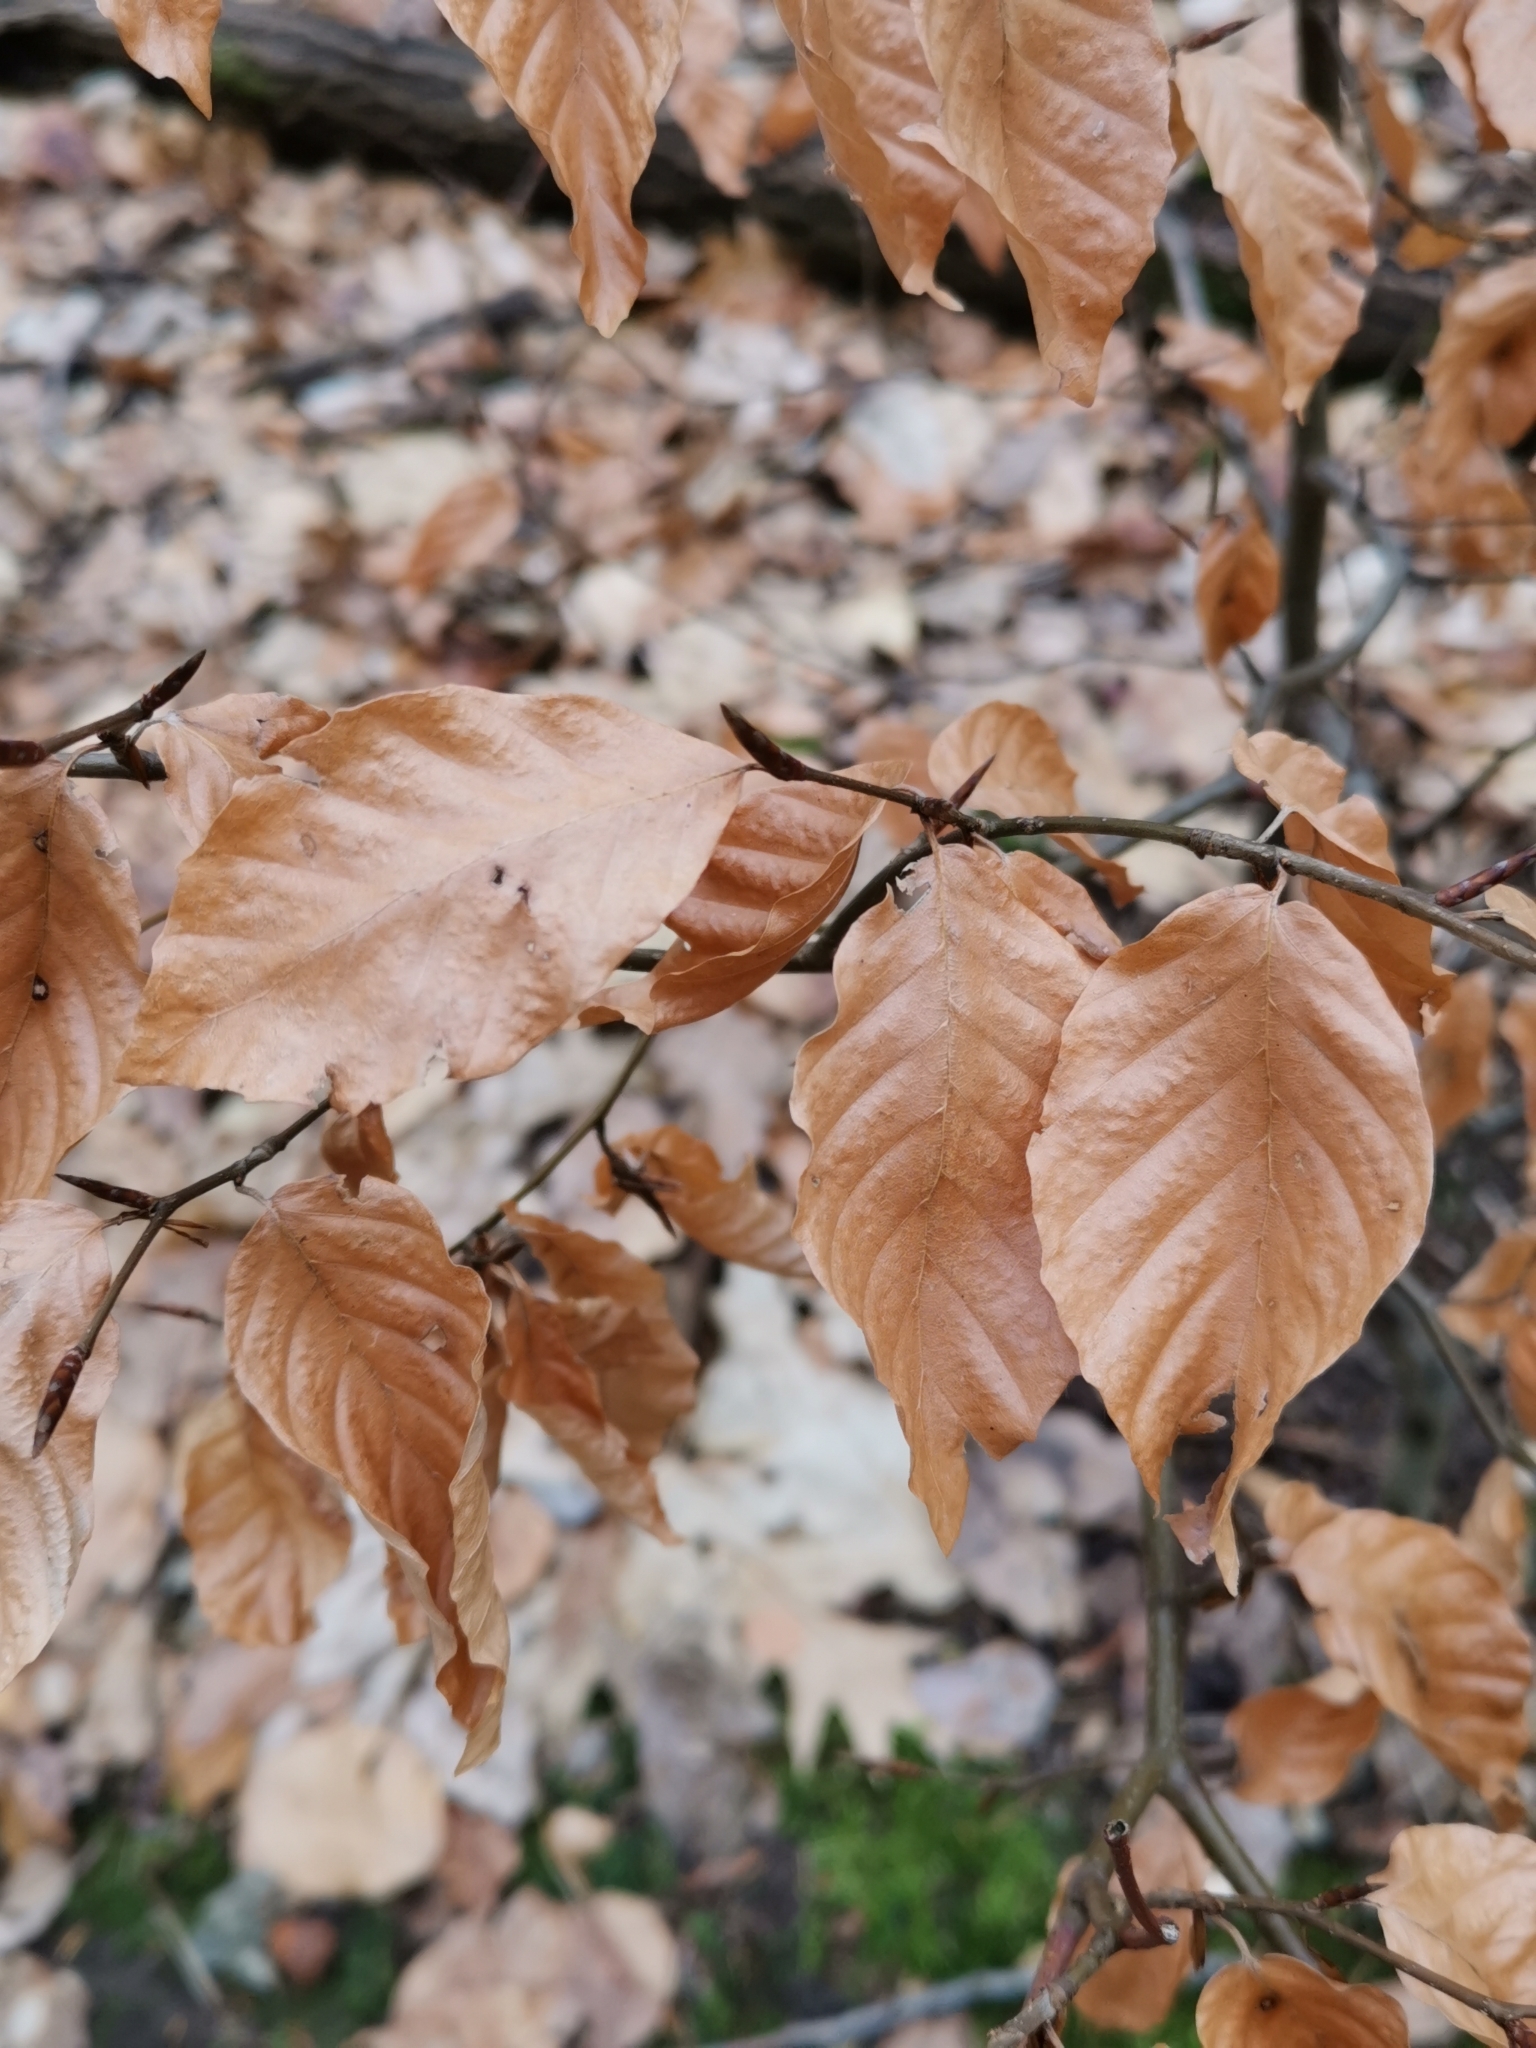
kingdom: Plantae
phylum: Tracheophyta
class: Magnoliopsida
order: Fagales
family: Fagaceae
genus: Fagus
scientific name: Fagus sylvatica
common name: Beech
